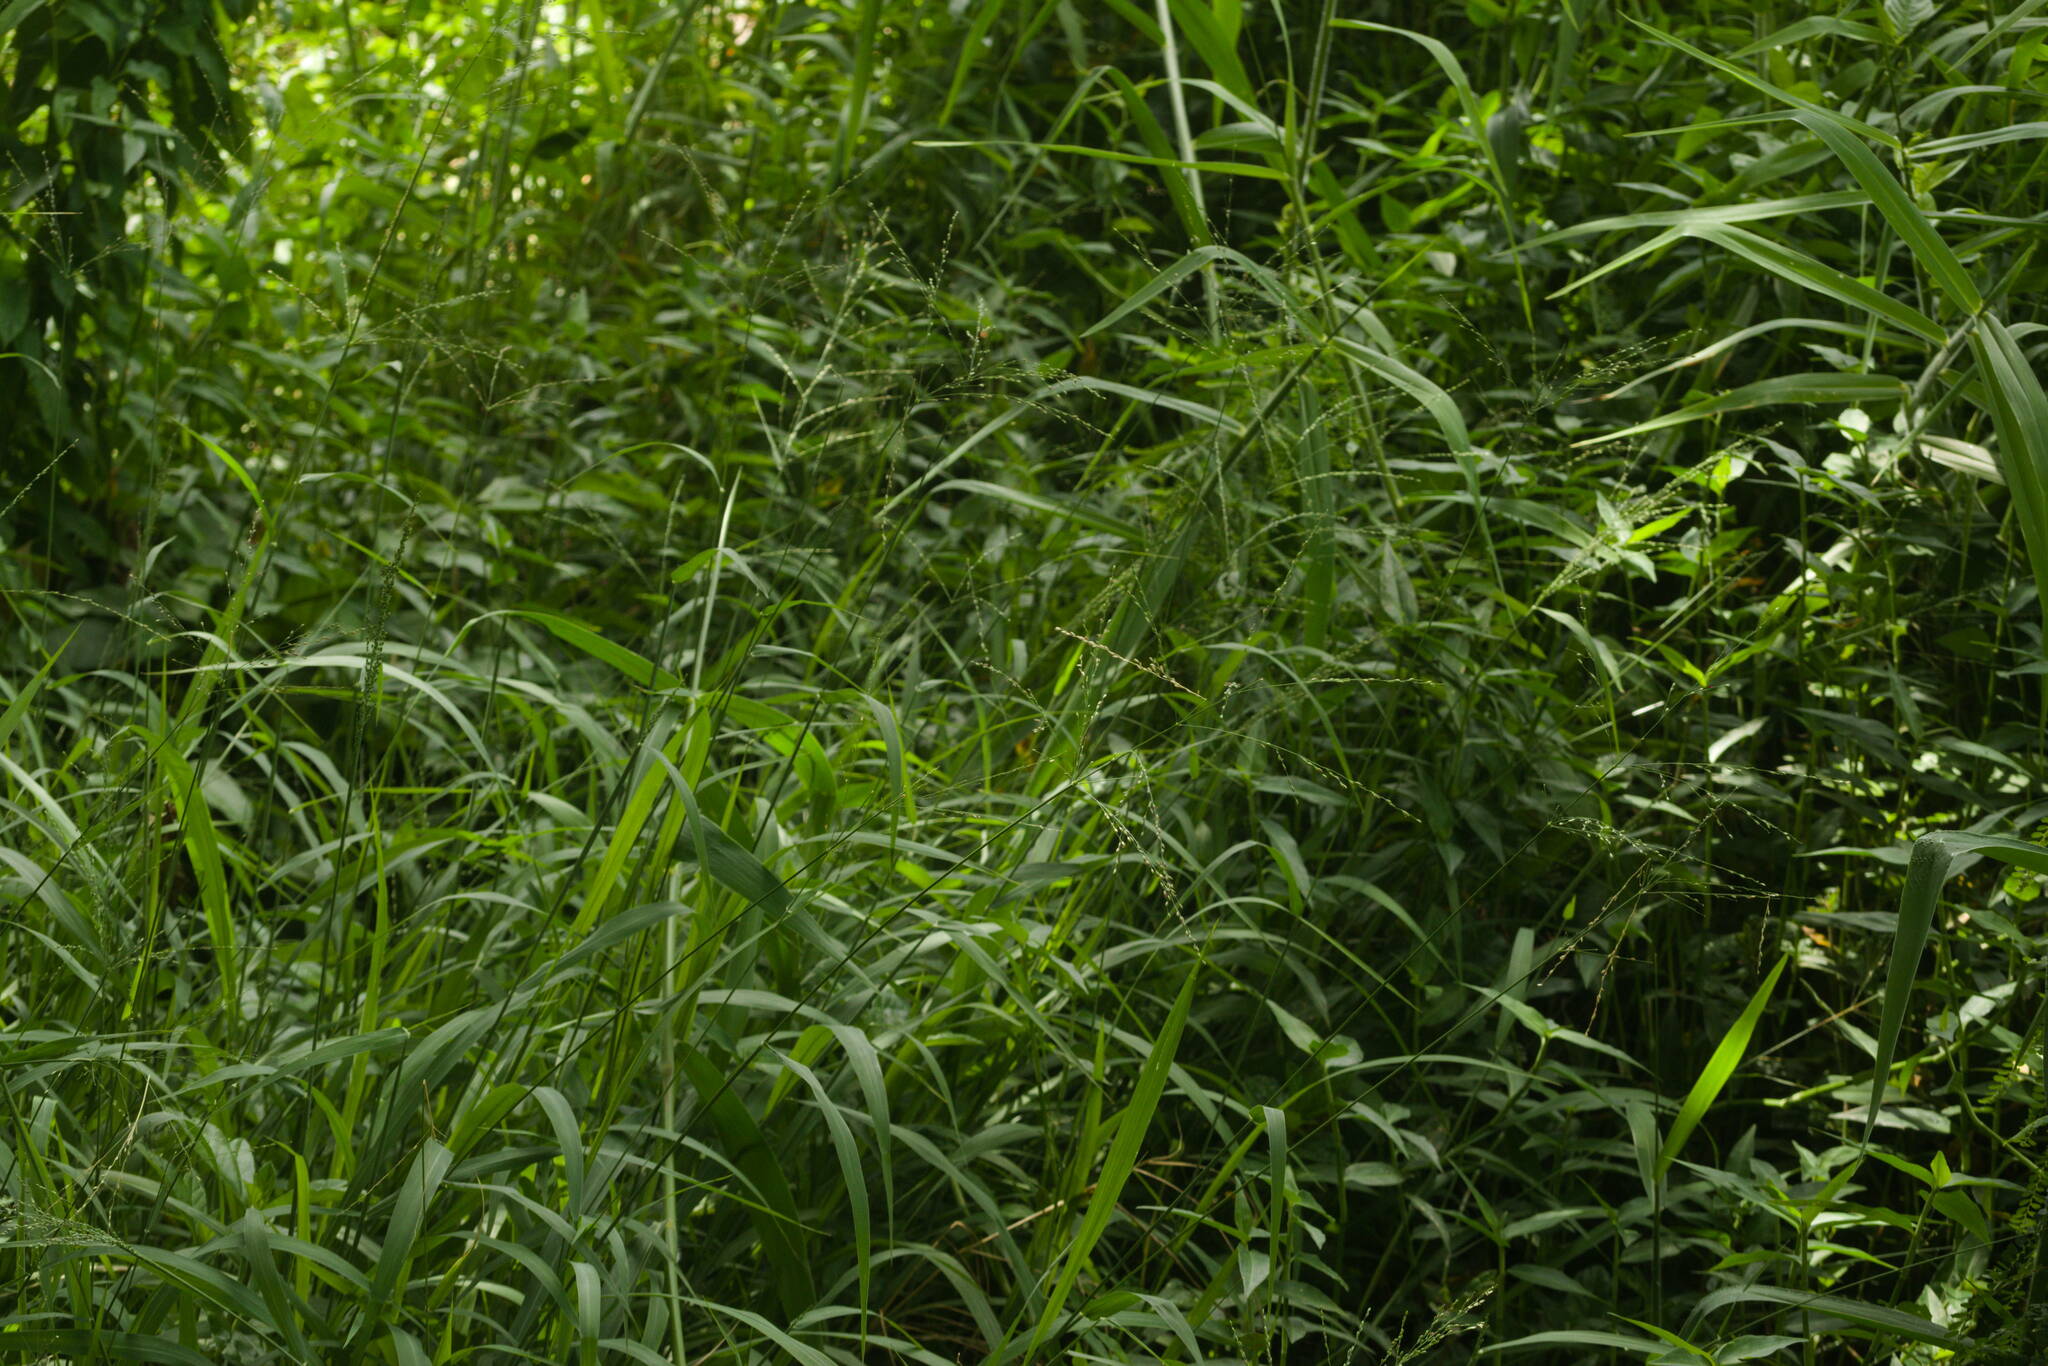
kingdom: Plantae
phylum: Tracheophyta
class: Liliopsida
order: Poales
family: Poaceae
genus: Megathyrsus
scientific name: Megathyrsus maximus
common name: Guineagrass
